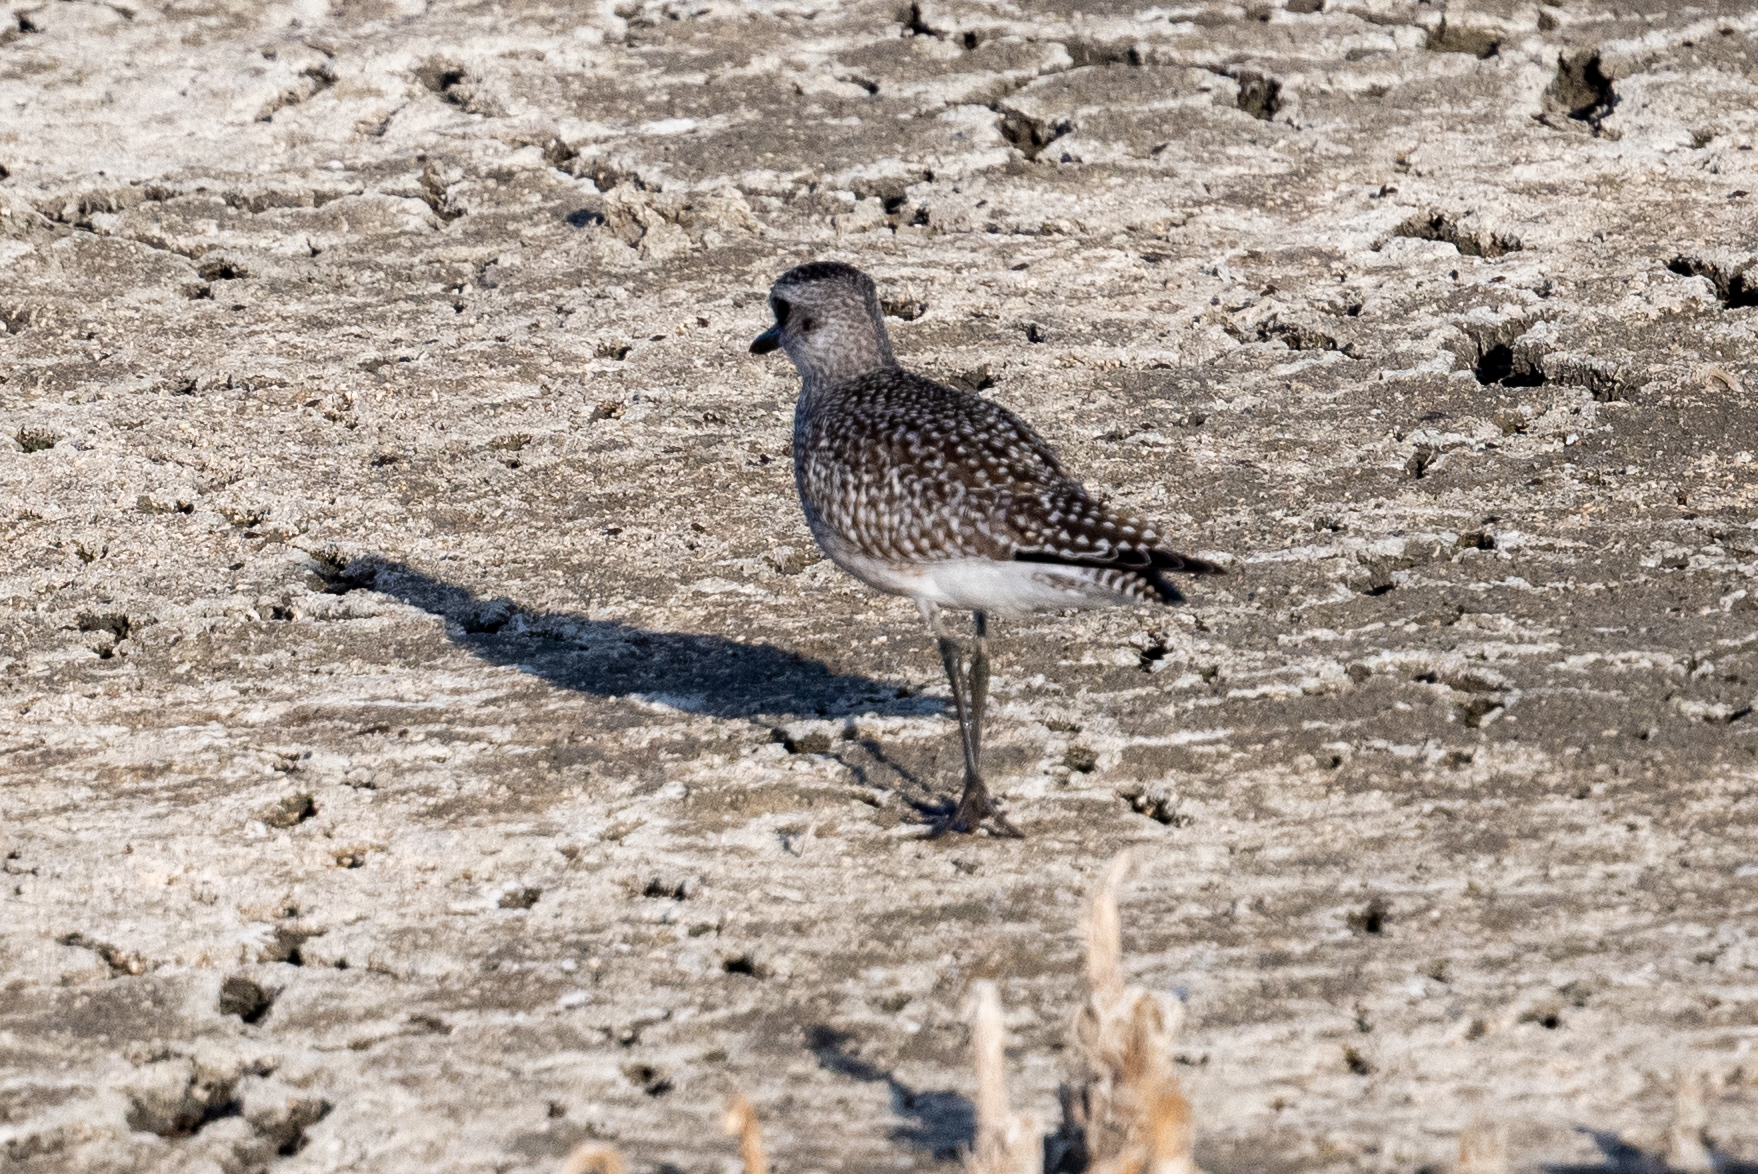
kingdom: Animalia
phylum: Chordata
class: Aves
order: Charadriiformes
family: Charadriidae
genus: Pluvialis
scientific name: Pluvialis squatarola
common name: Grey plover
